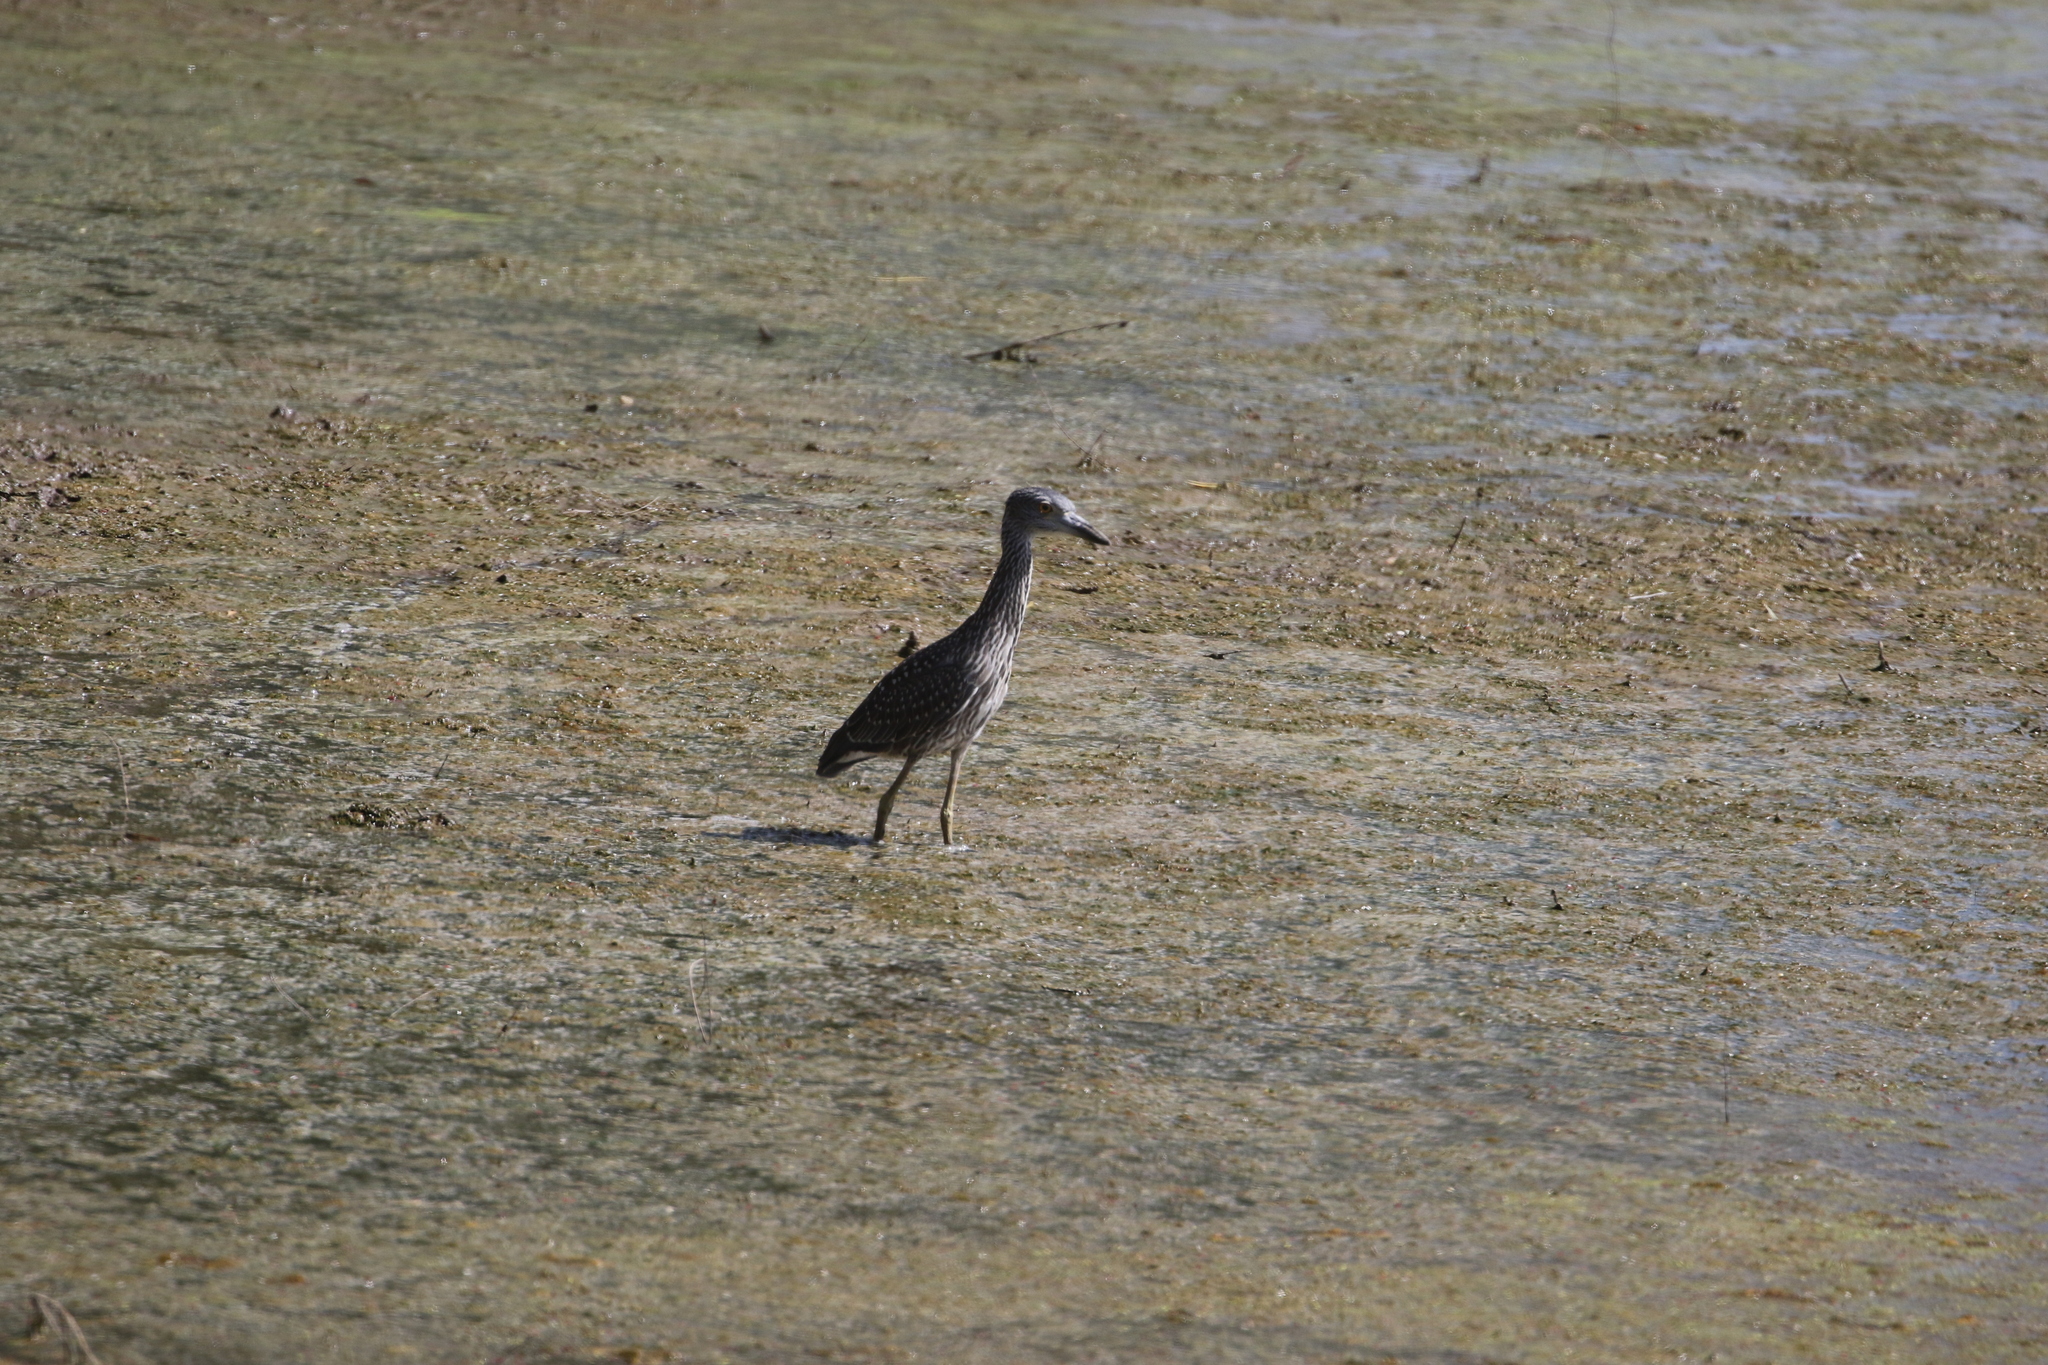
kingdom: Animalia
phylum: Chordata
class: Aves
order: Pelecaniformes
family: Ardeidae
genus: Nyctanassa
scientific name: Nyctanassa violacea
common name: Yellow-crowned night heron
